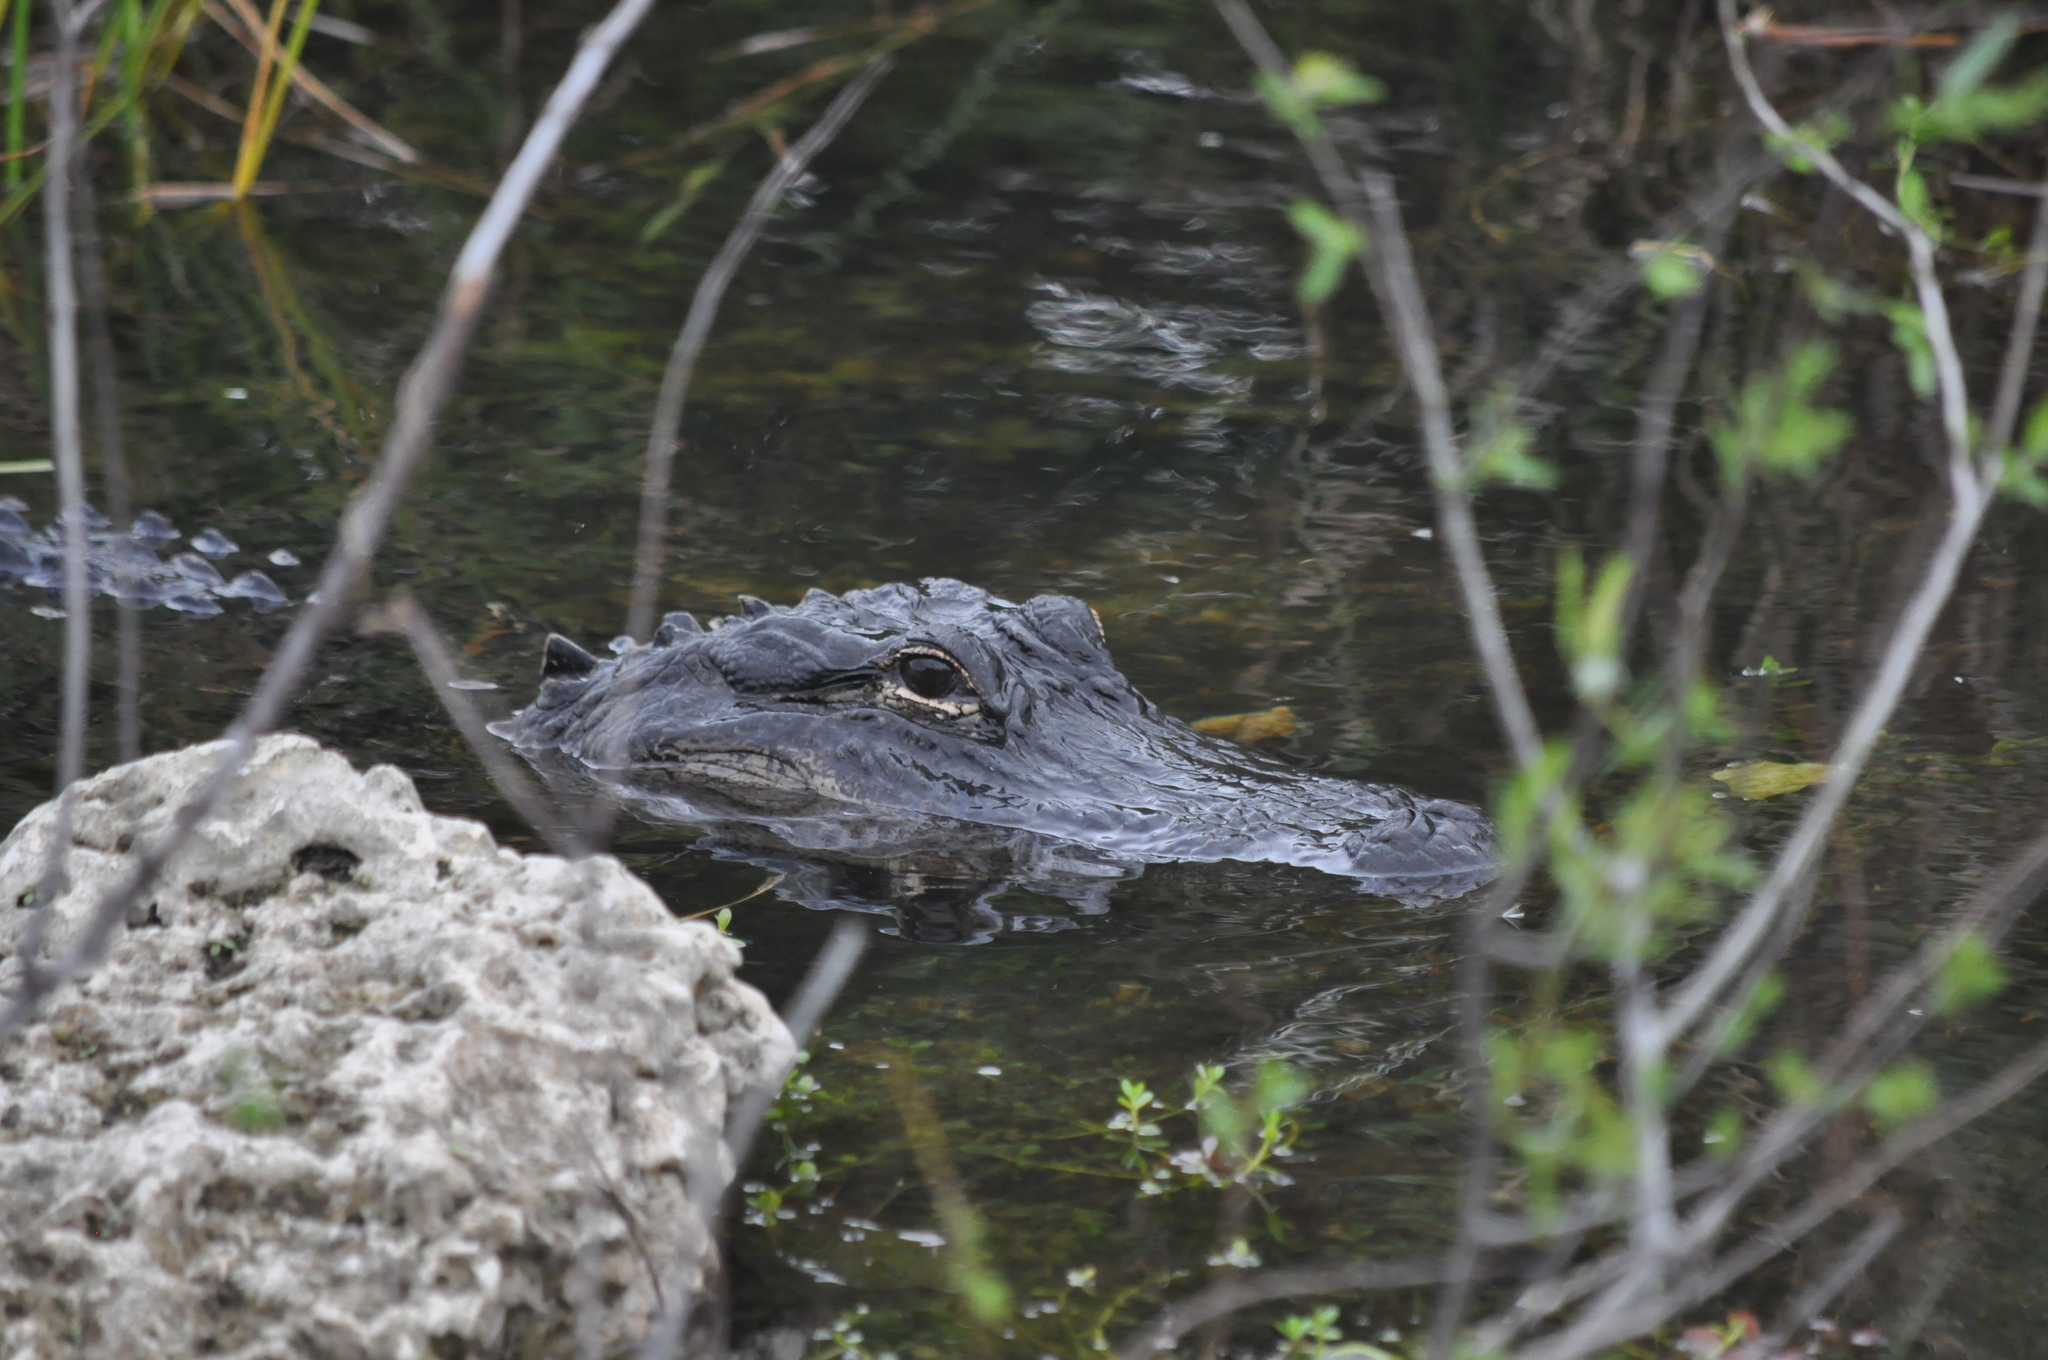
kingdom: Animalia
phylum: Chordata
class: Crocodylia
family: Alligatoridae
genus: Alligator
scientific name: Alligator mississippiensis
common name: American alligator
